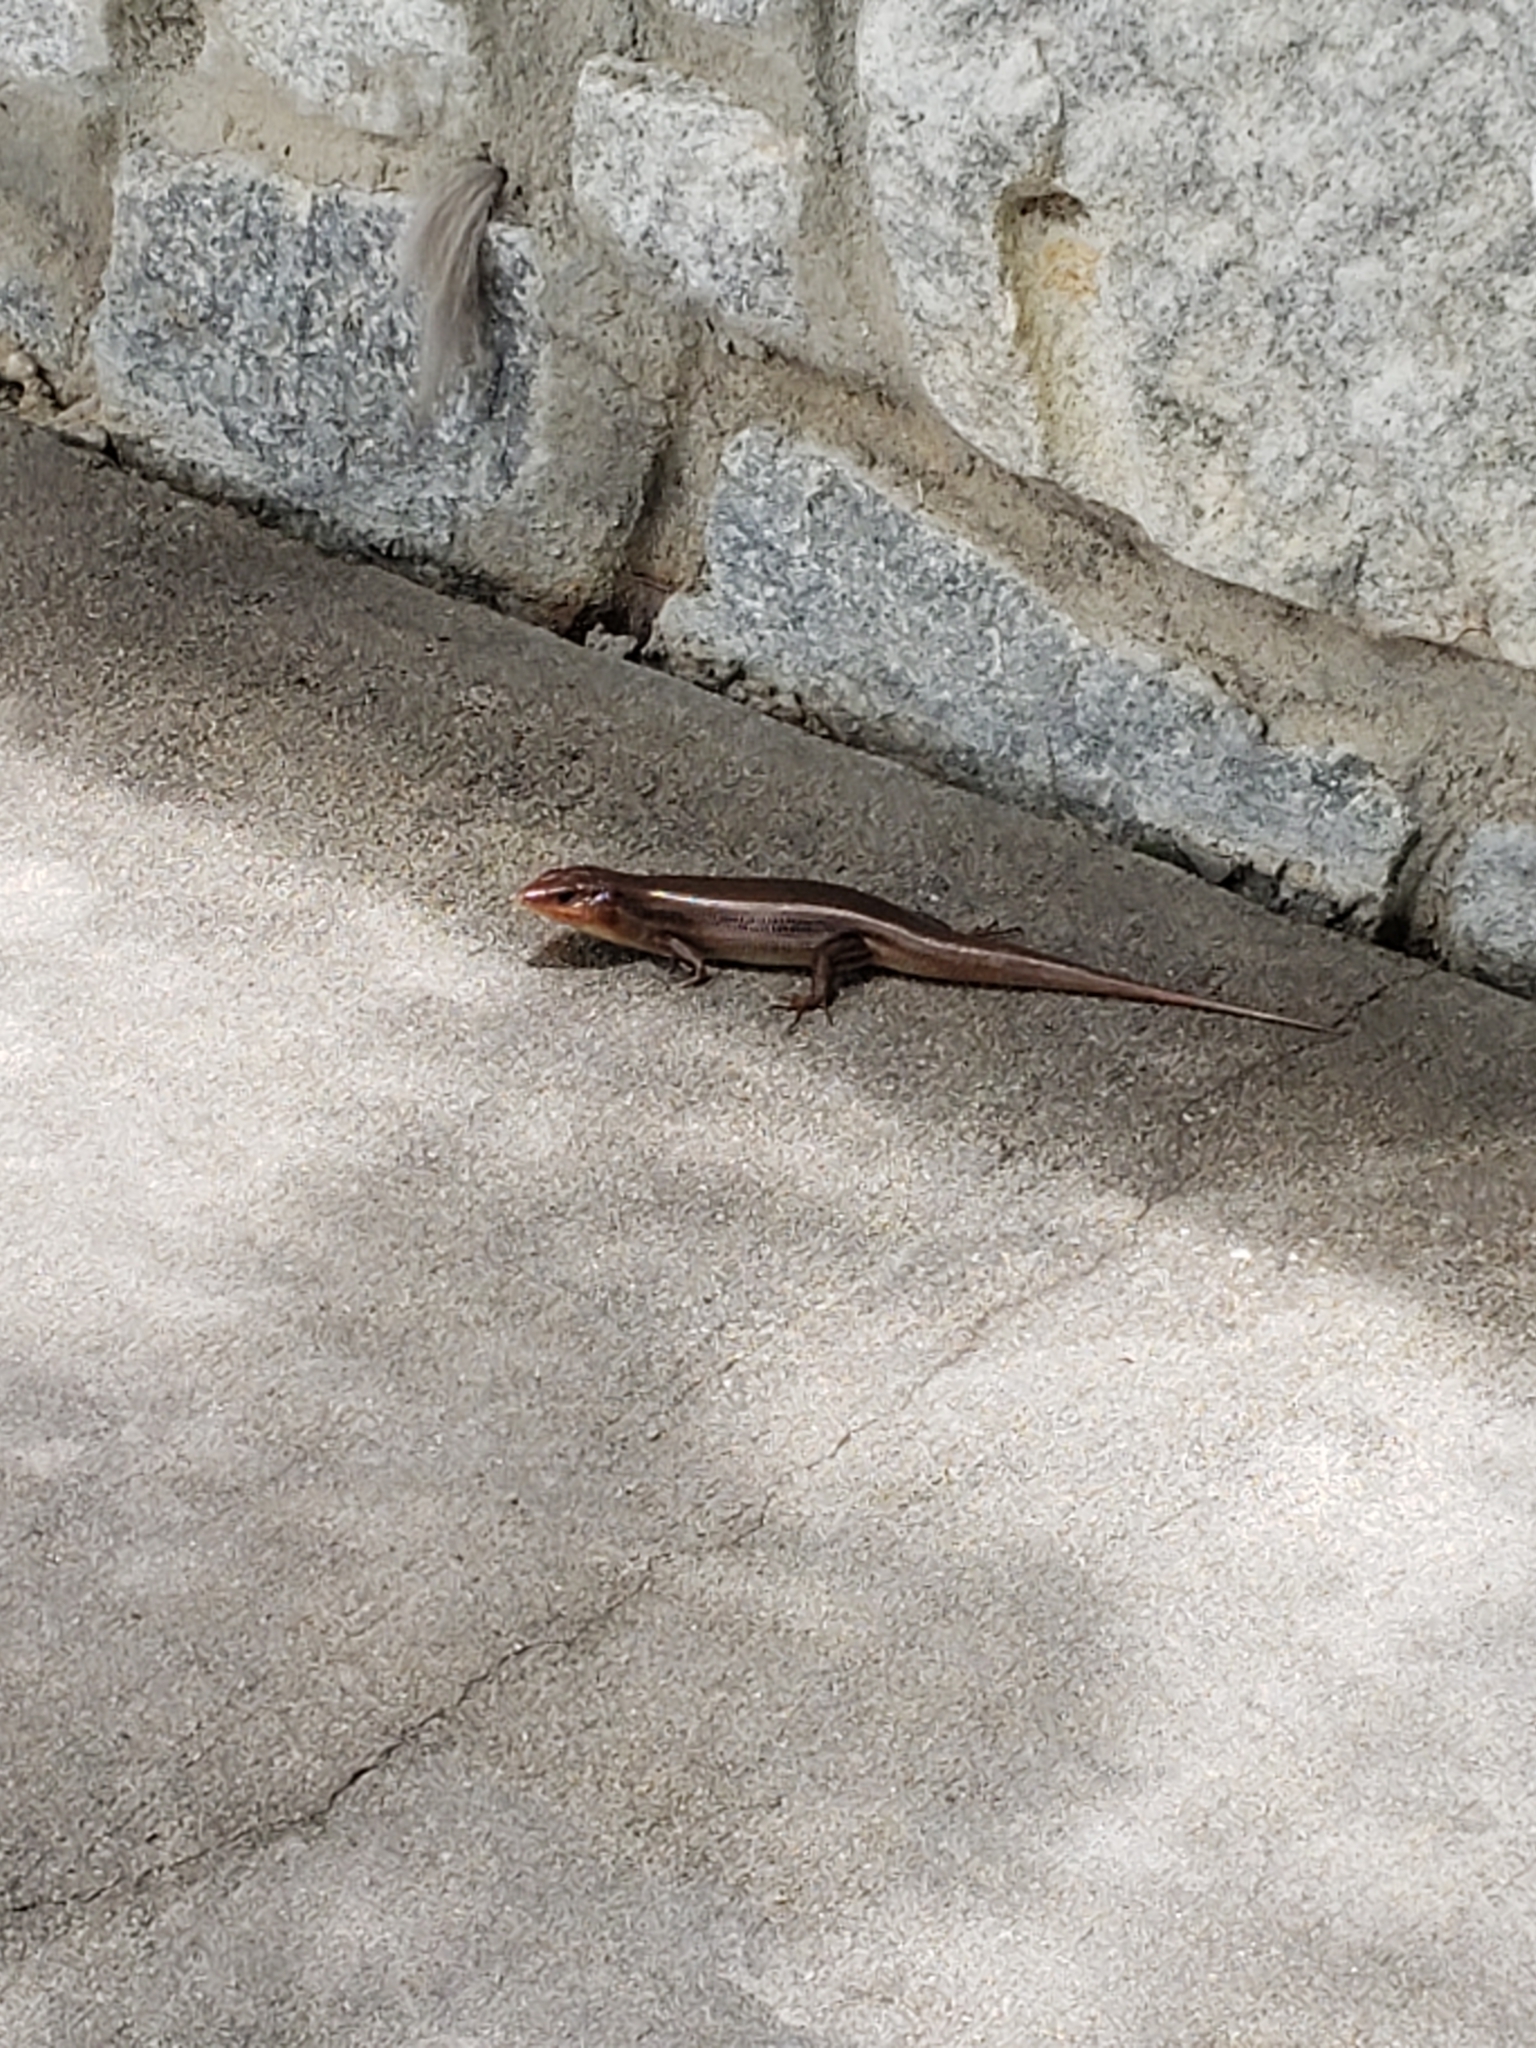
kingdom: Animalia
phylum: Chordata
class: Squamata
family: Scincidae
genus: Plestiodon
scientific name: Plestiodon laticeps
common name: Broadhead skink
